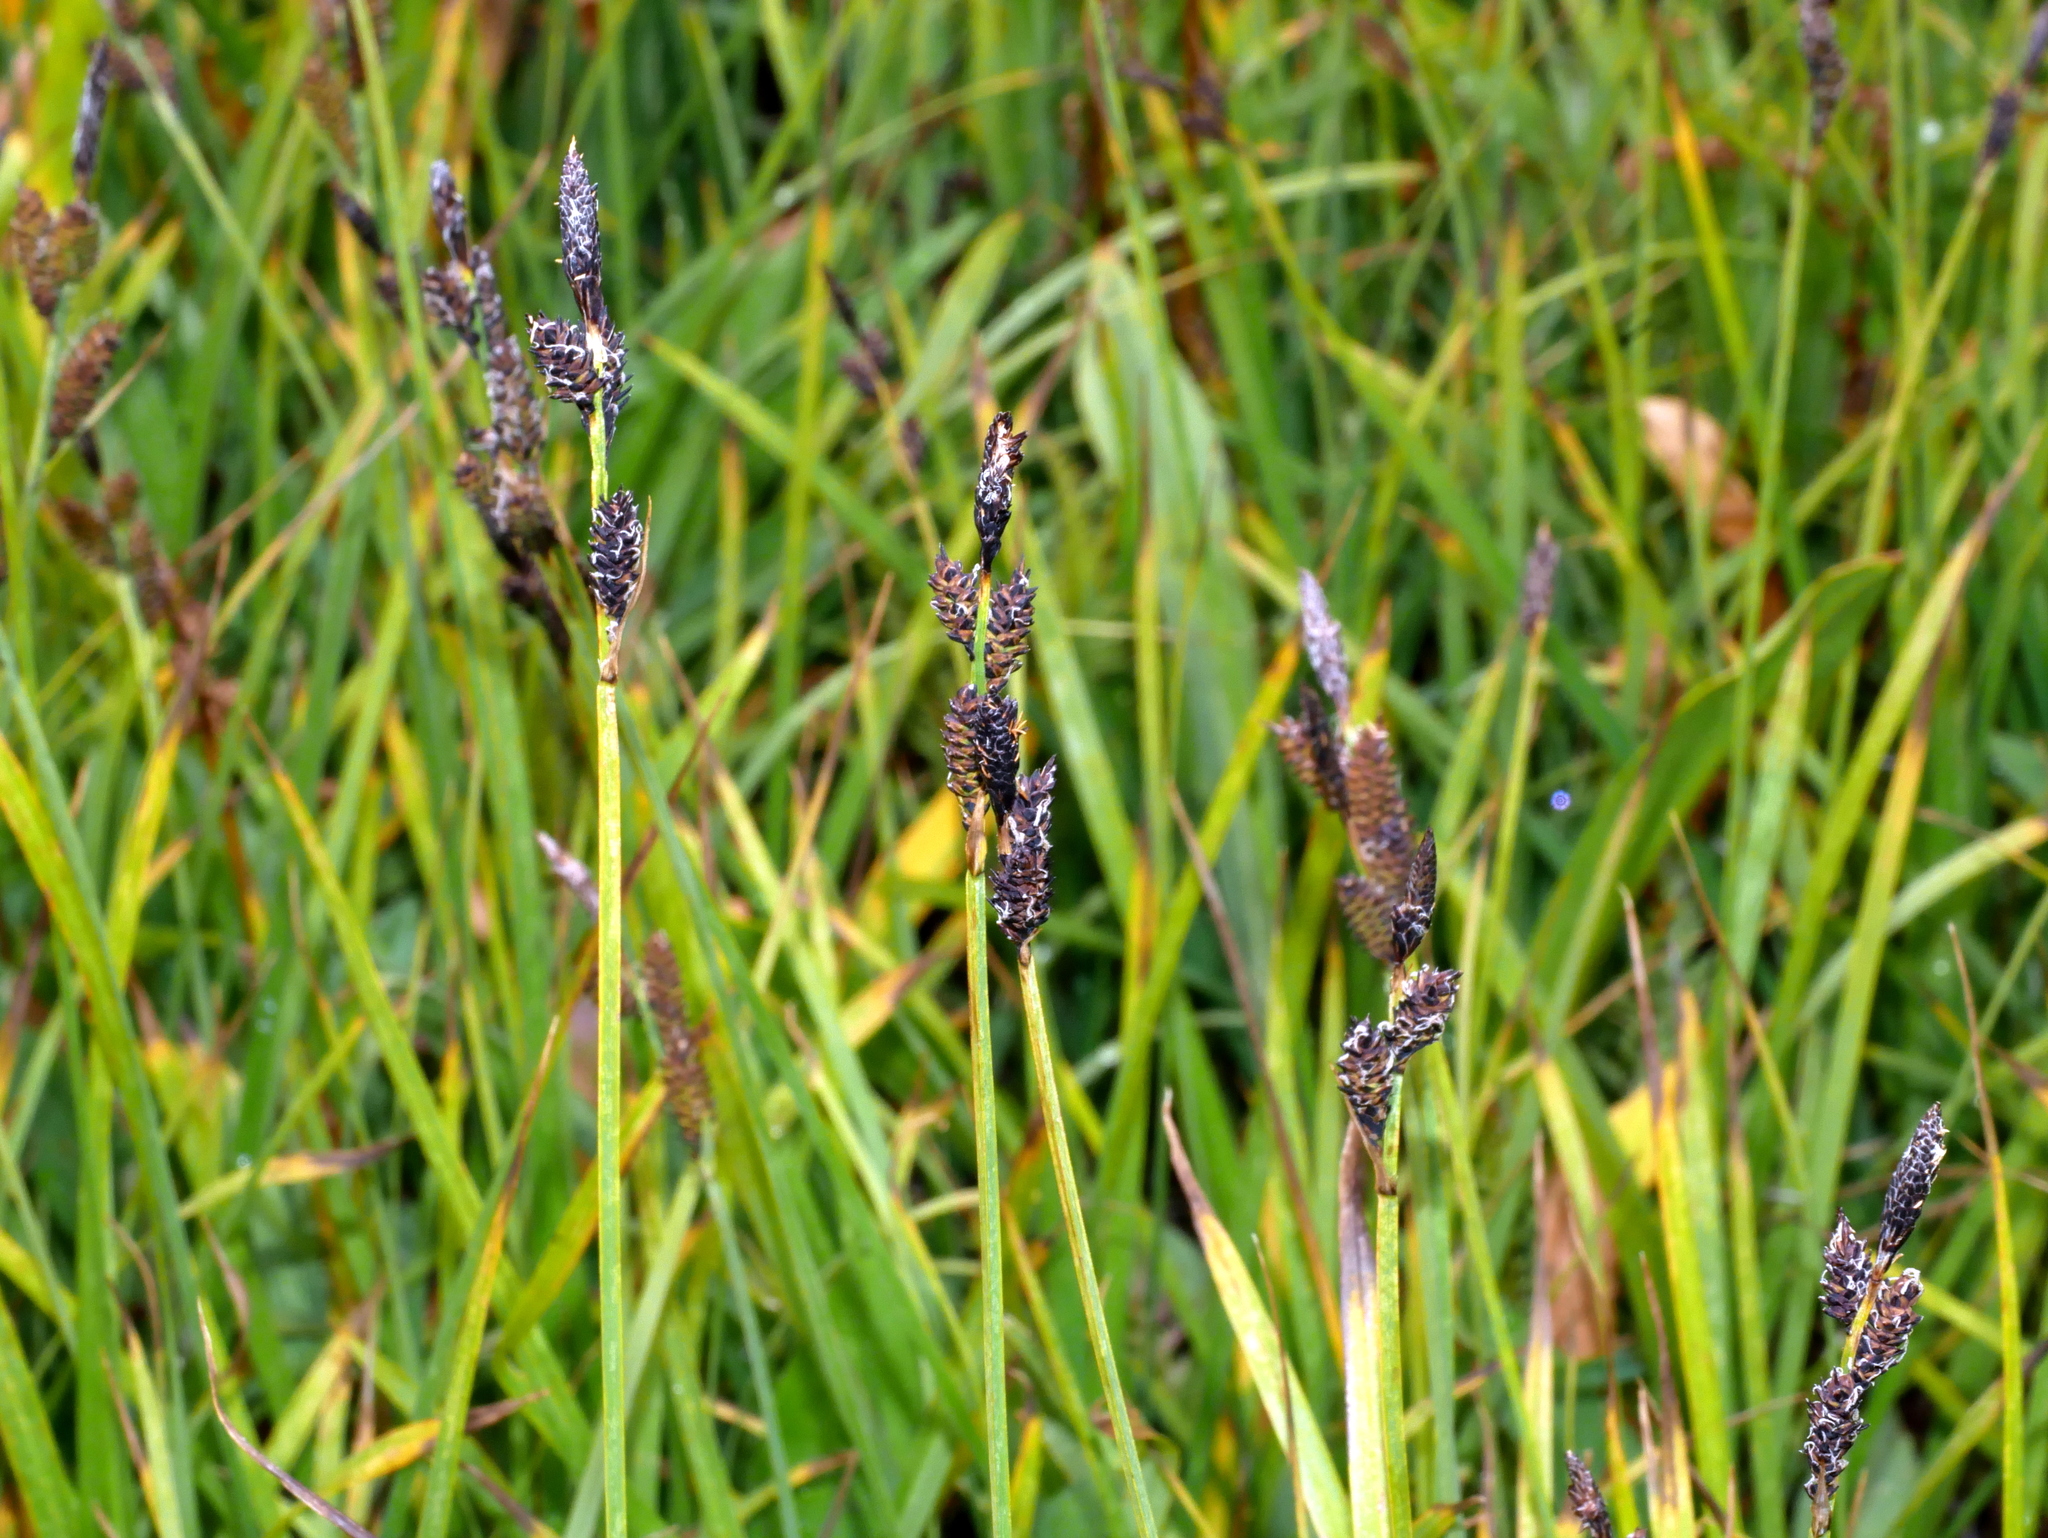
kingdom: Plantae
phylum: Tracheophyta
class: Liliopsida
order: Poales
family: Cyperaceae
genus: Carex
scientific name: Carex scopulorum
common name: Holm's rocky mountain sedge
